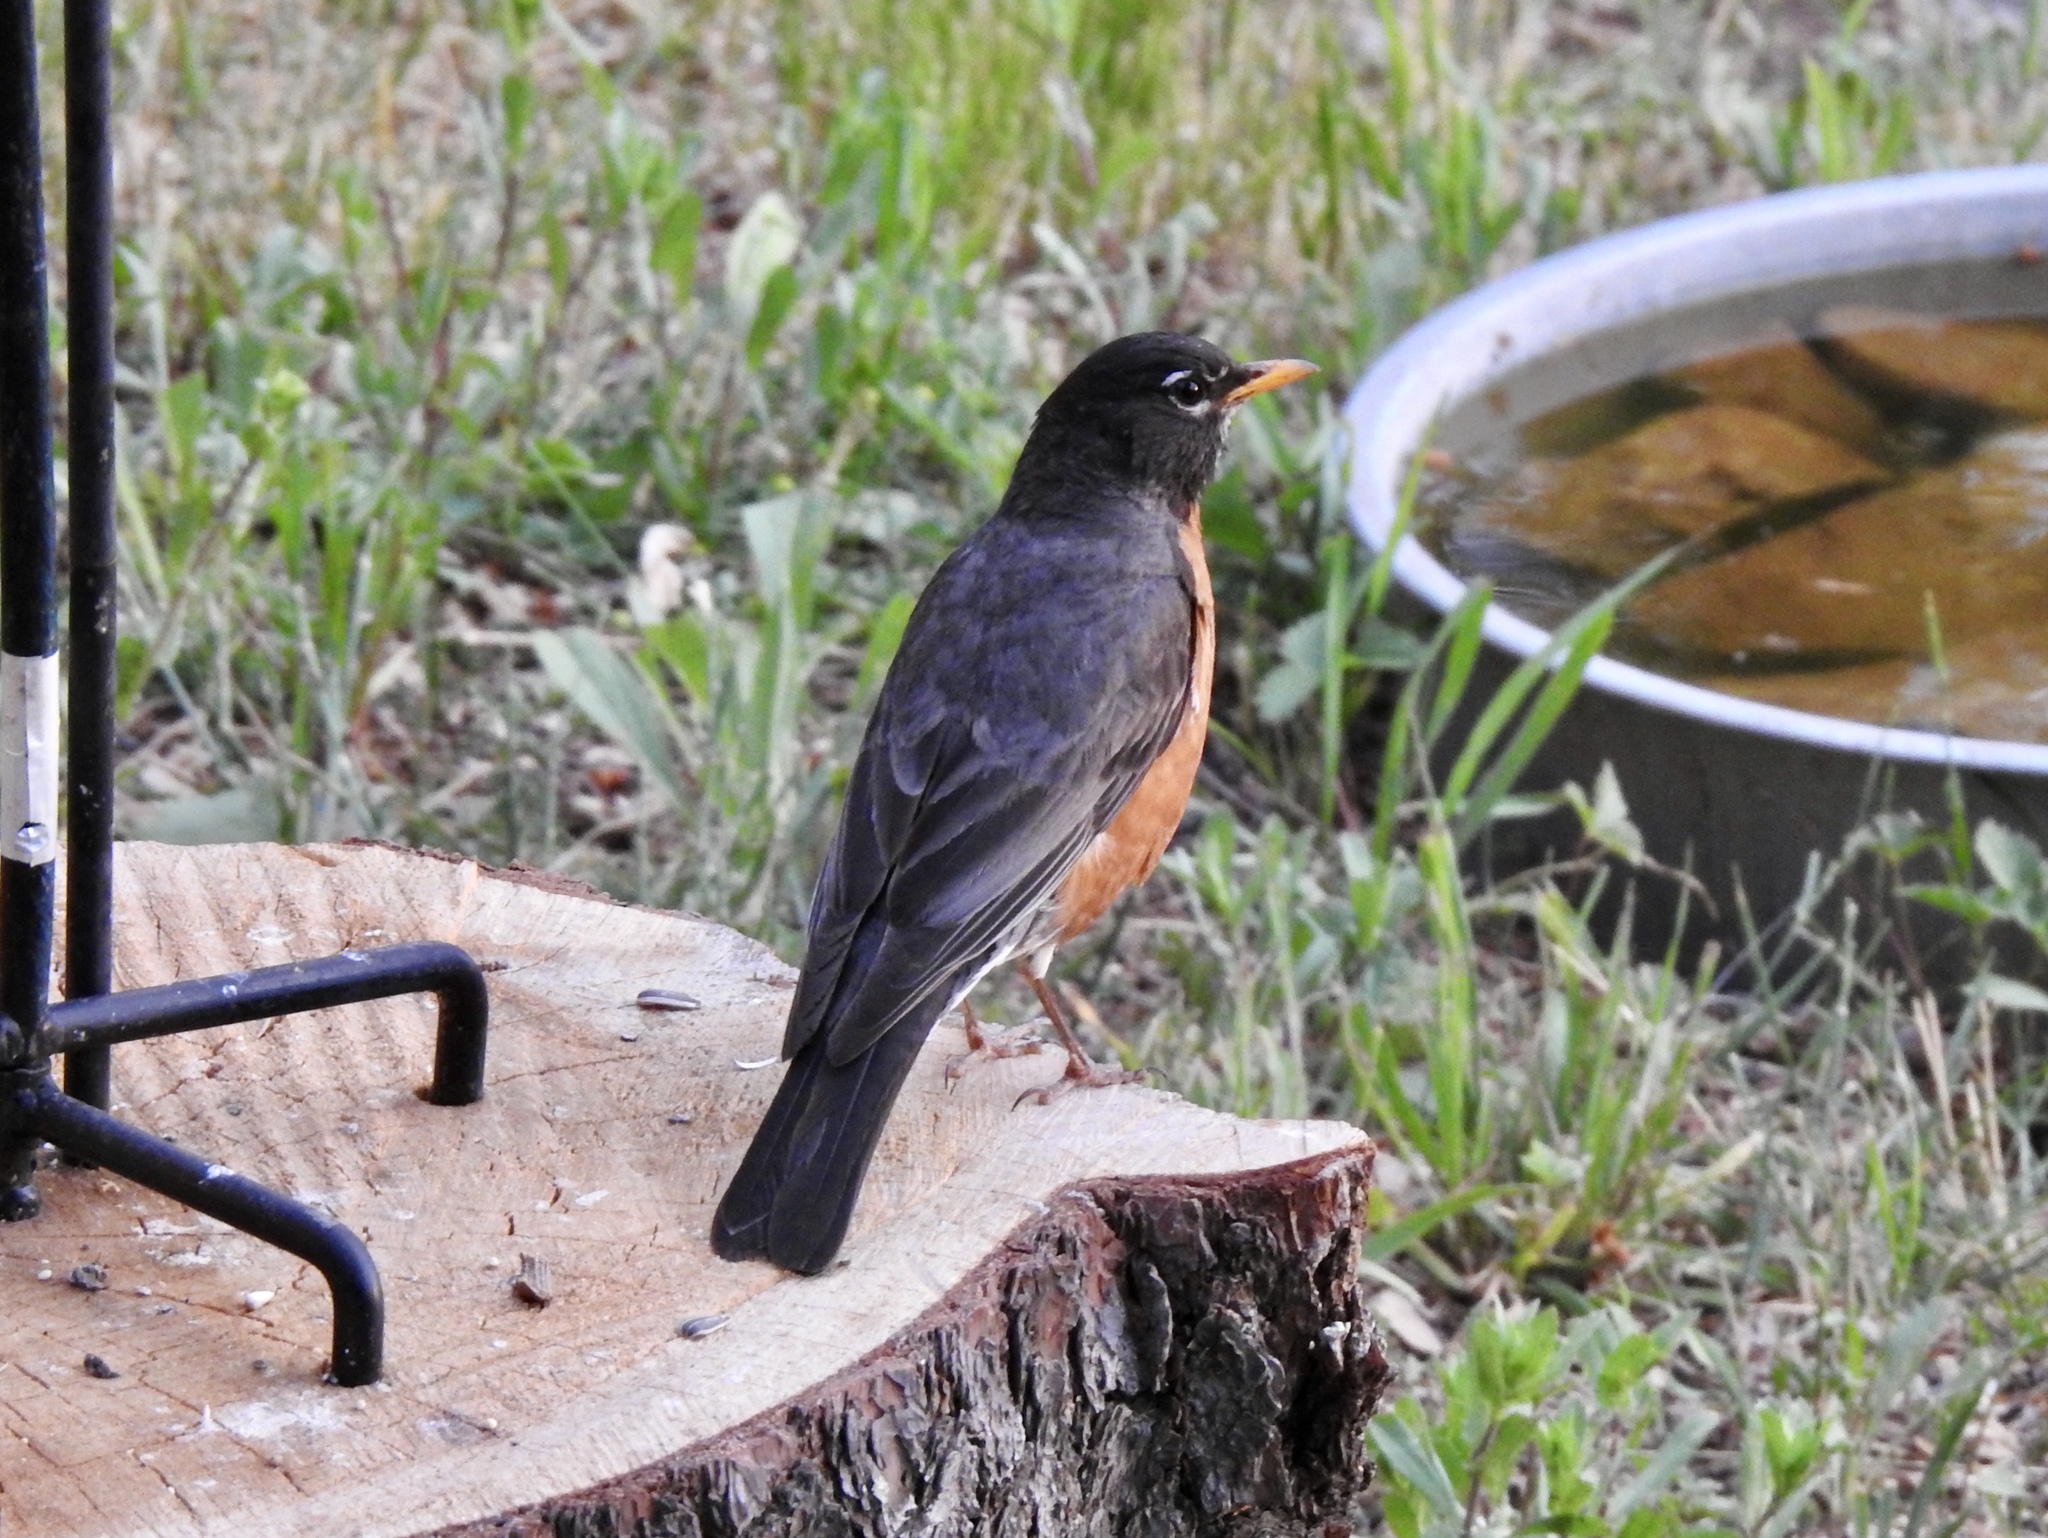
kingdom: Animalia
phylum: Chordata
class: Aves
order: Passeriformes
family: Turdidae
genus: Turdus
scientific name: Turdus migratorius
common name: American robin
